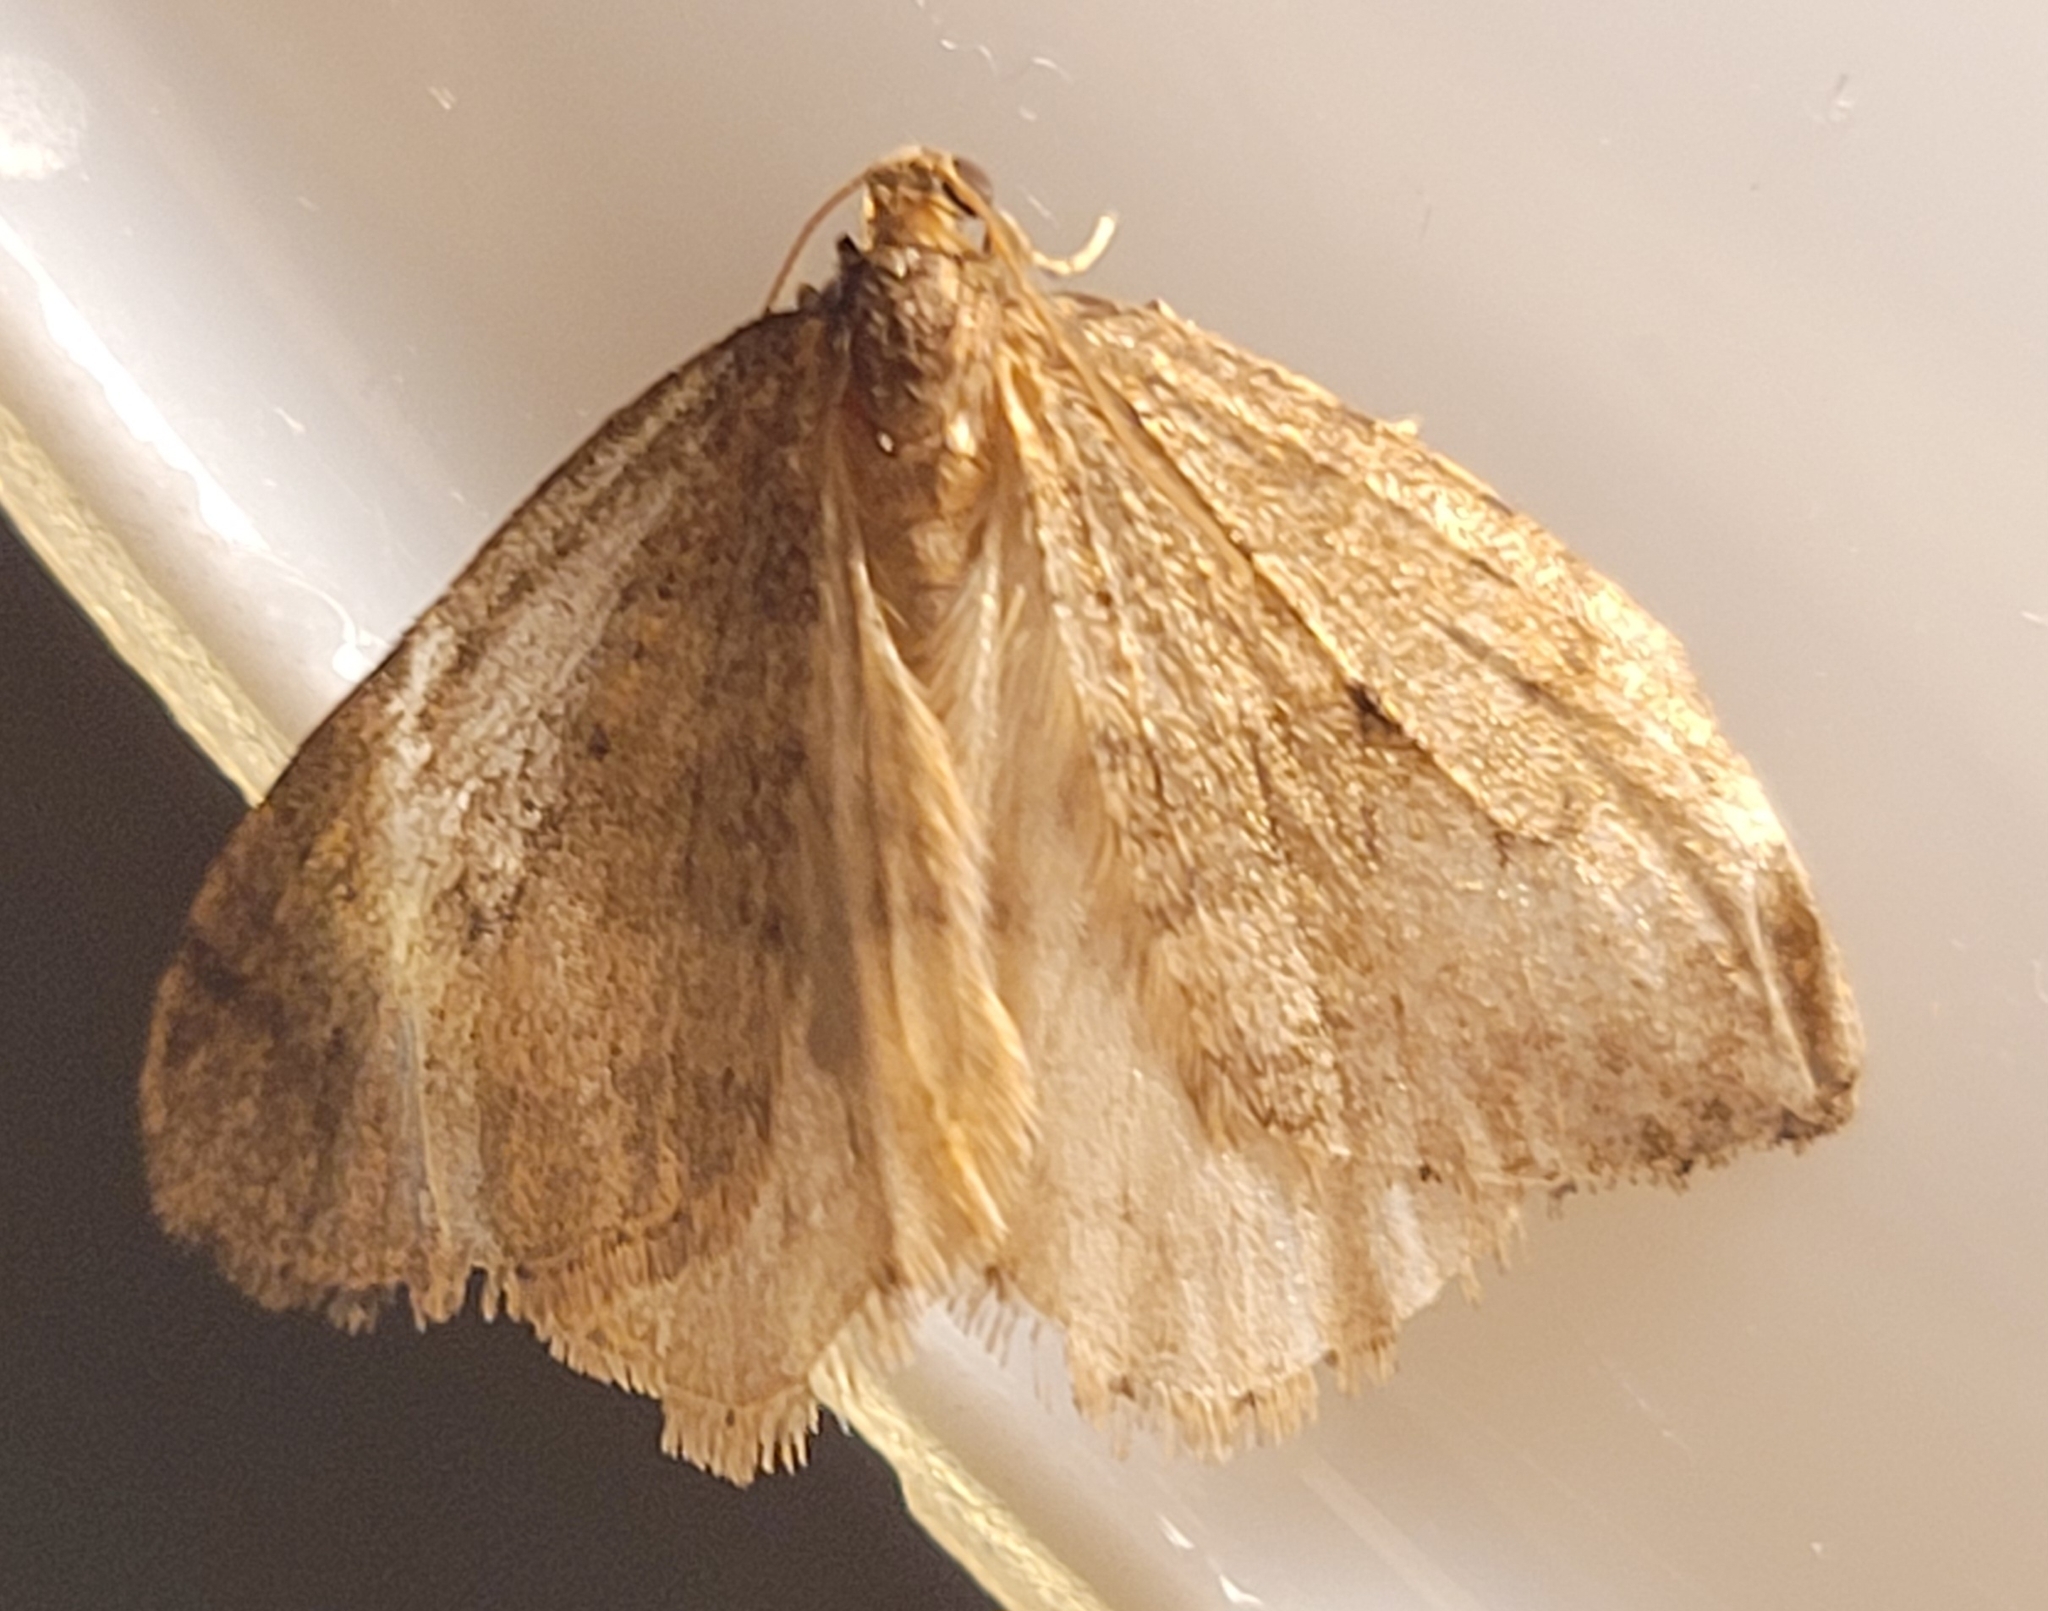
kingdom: Animalia
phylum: Arthropoda
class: Insecta
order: Lepidoptera
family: Geometridae
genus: Operophtera
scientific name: Operophtera brumata
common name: Winter moth
